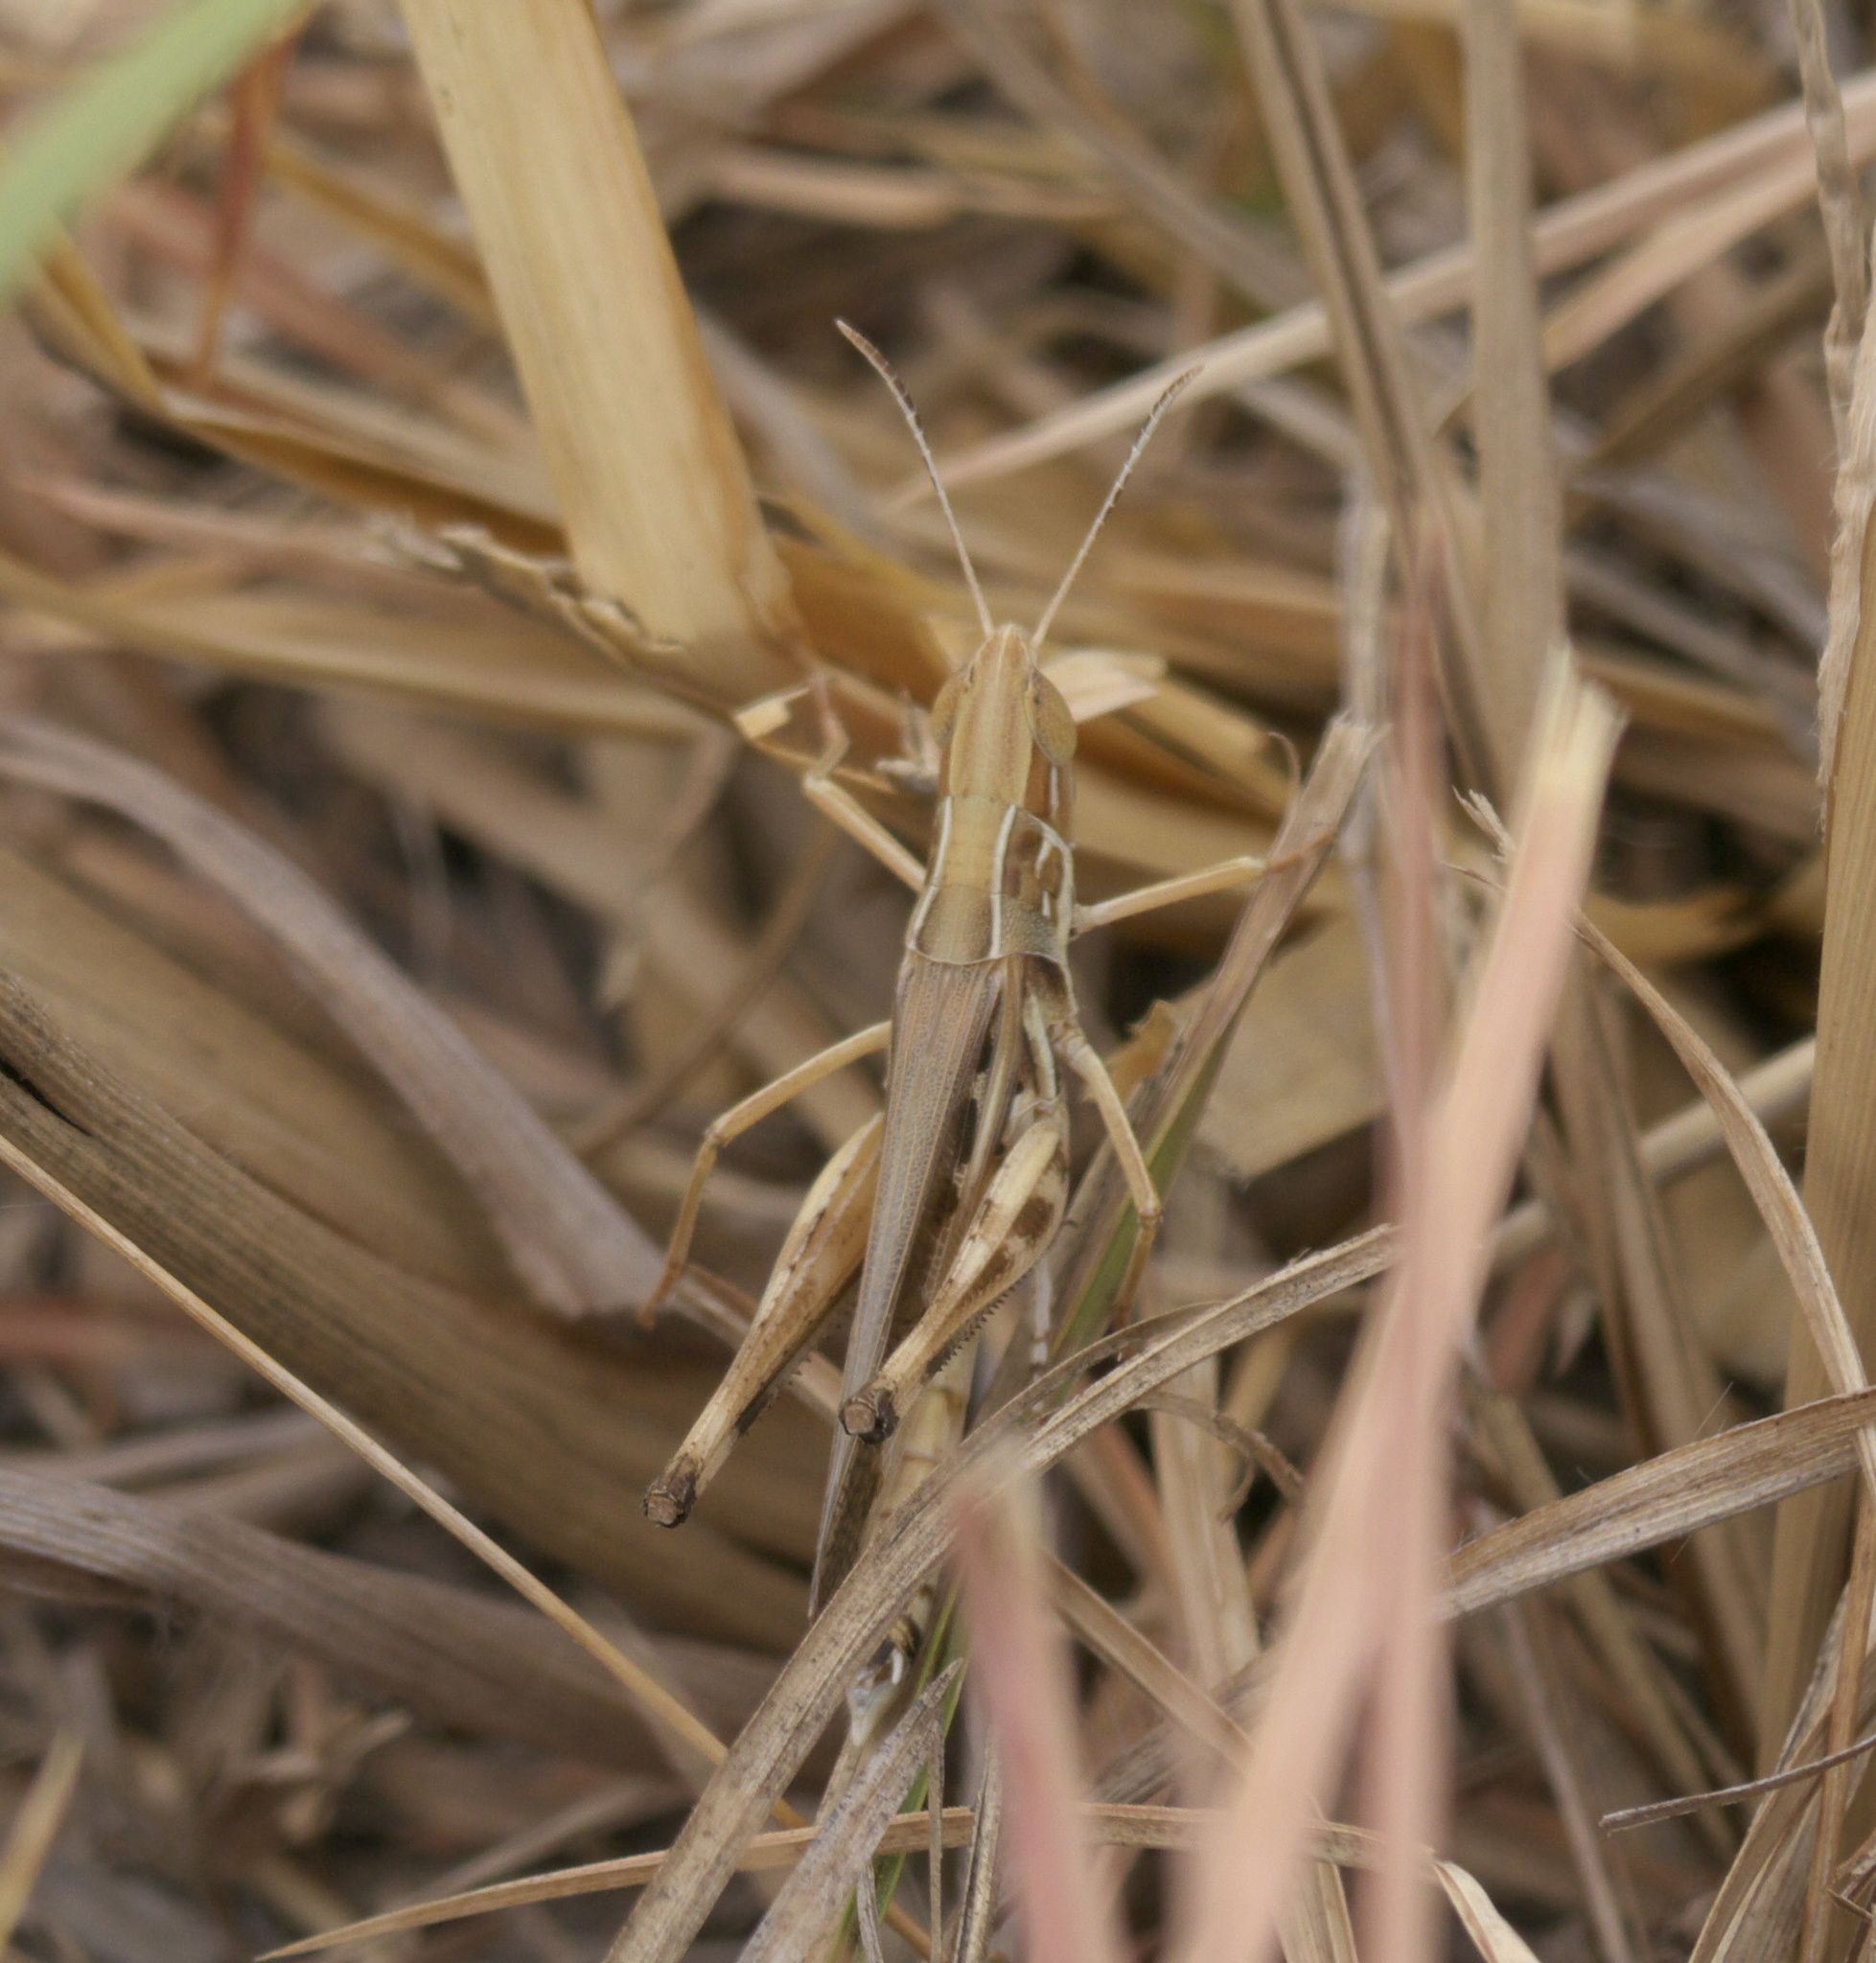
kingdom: Animalia
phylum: Arthropoda
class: Insecta
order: Orthoptera
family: Acrididae
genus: Syrbula
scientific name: Syrbula admirabilis
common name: Handsome grasshopper
